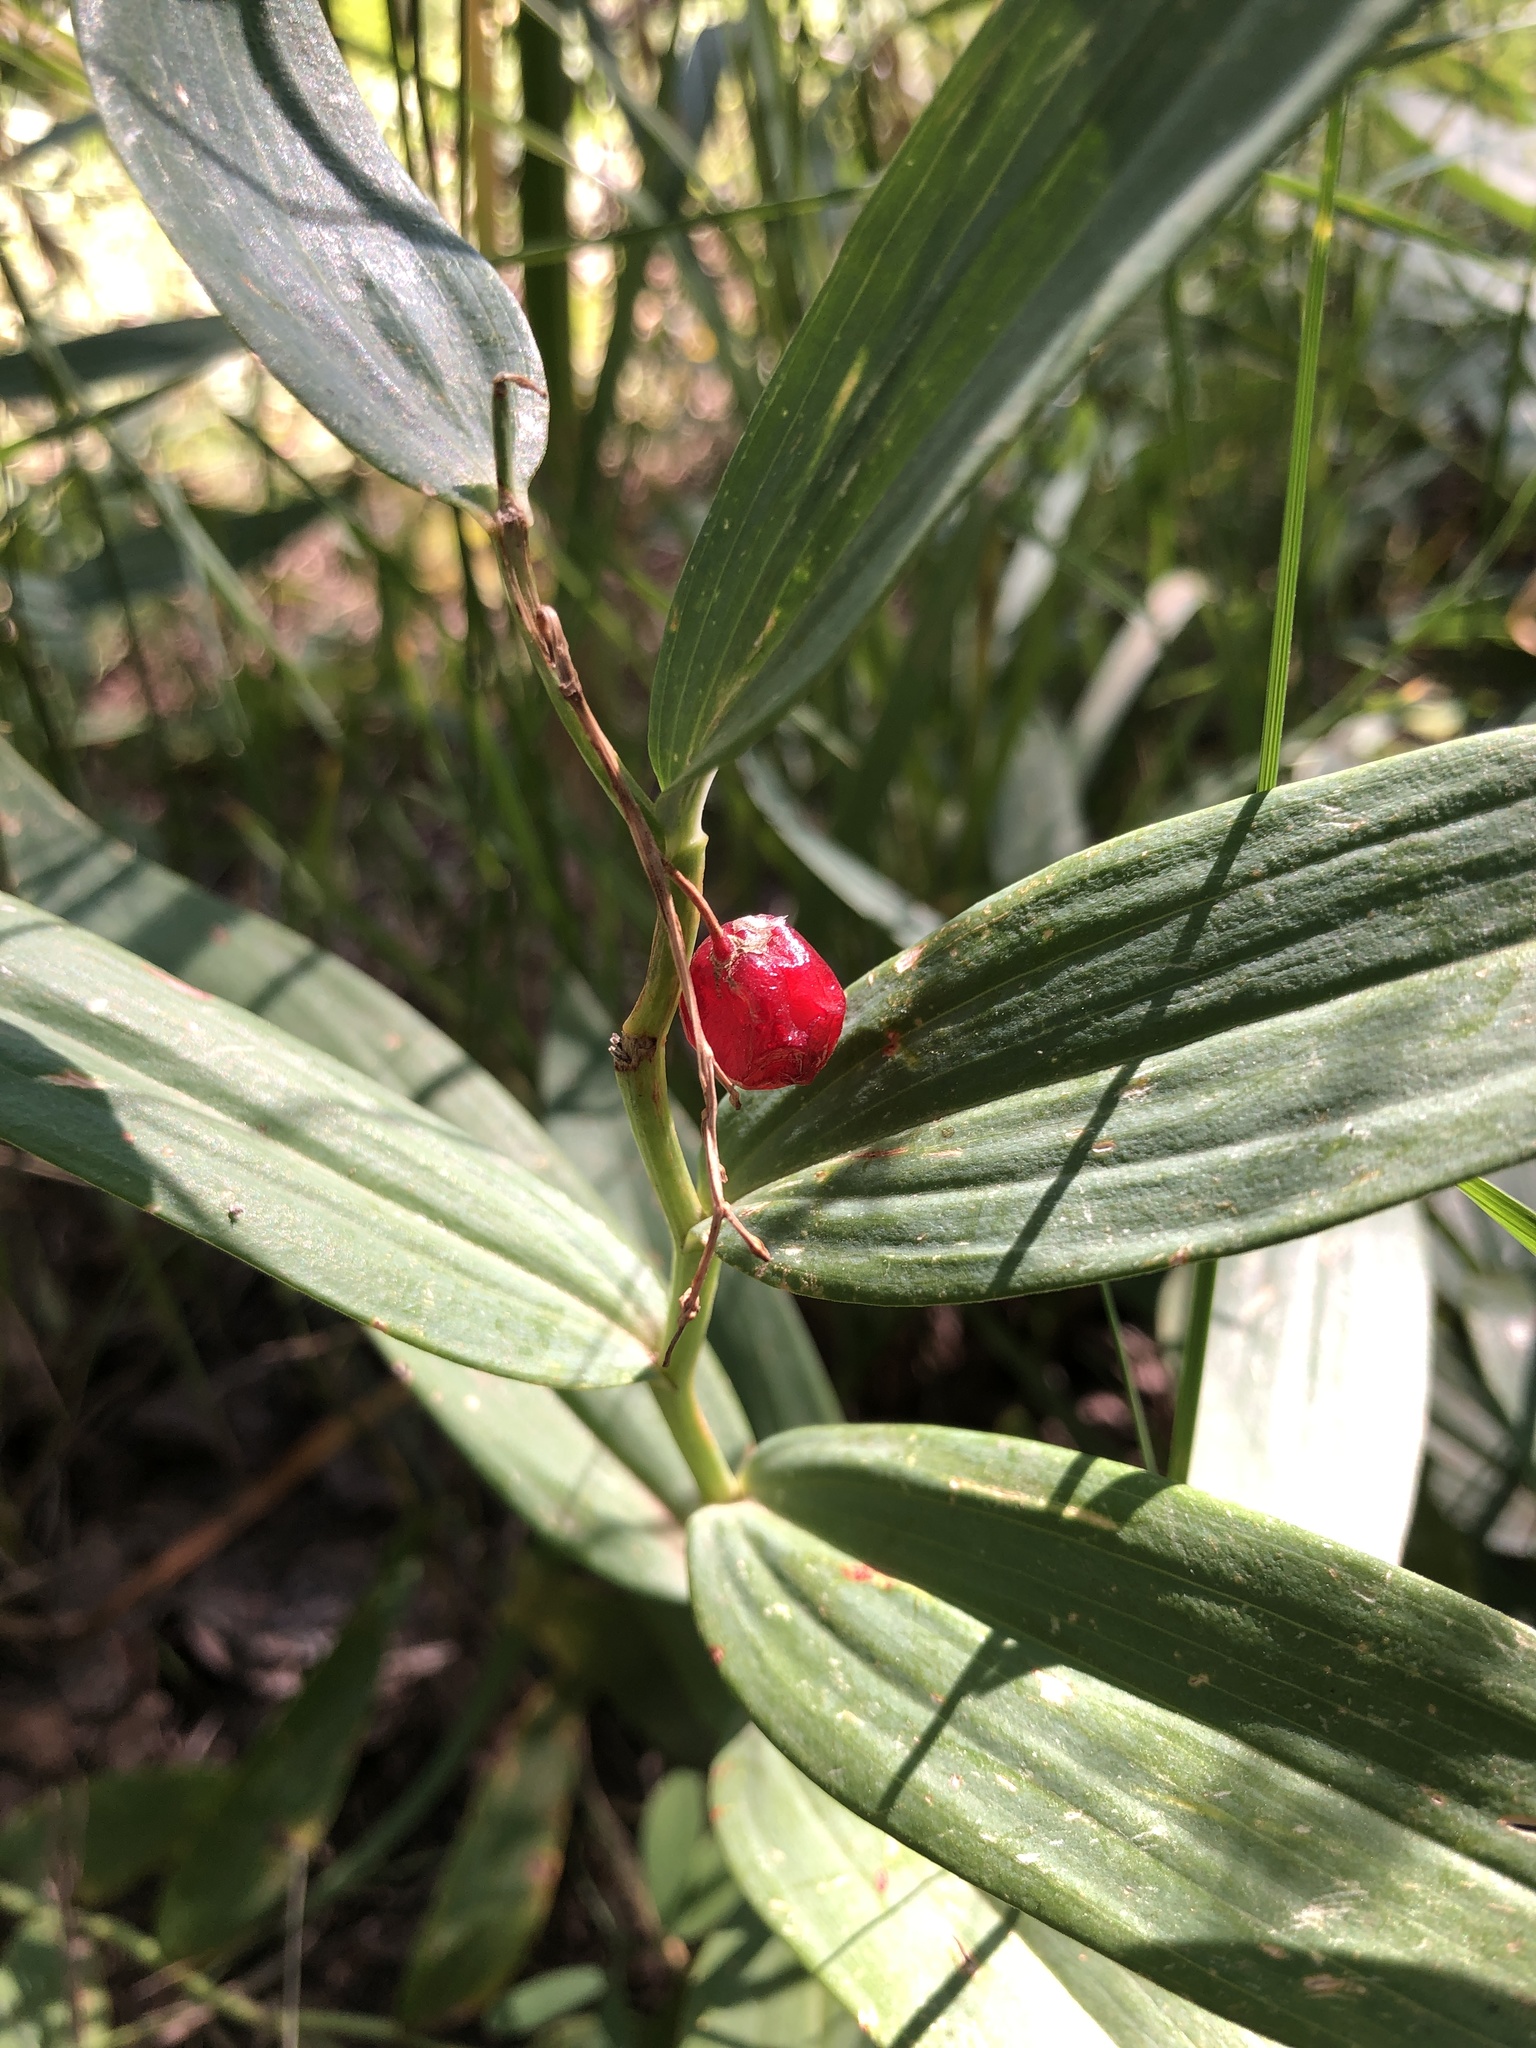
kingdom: Plantae
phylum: Tracheophyta
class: Liliopsida
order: Asparagales
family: Asparagaceae
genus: Maianthemum
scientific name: Maianthemum stellatum
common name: Little false solomon's seal
